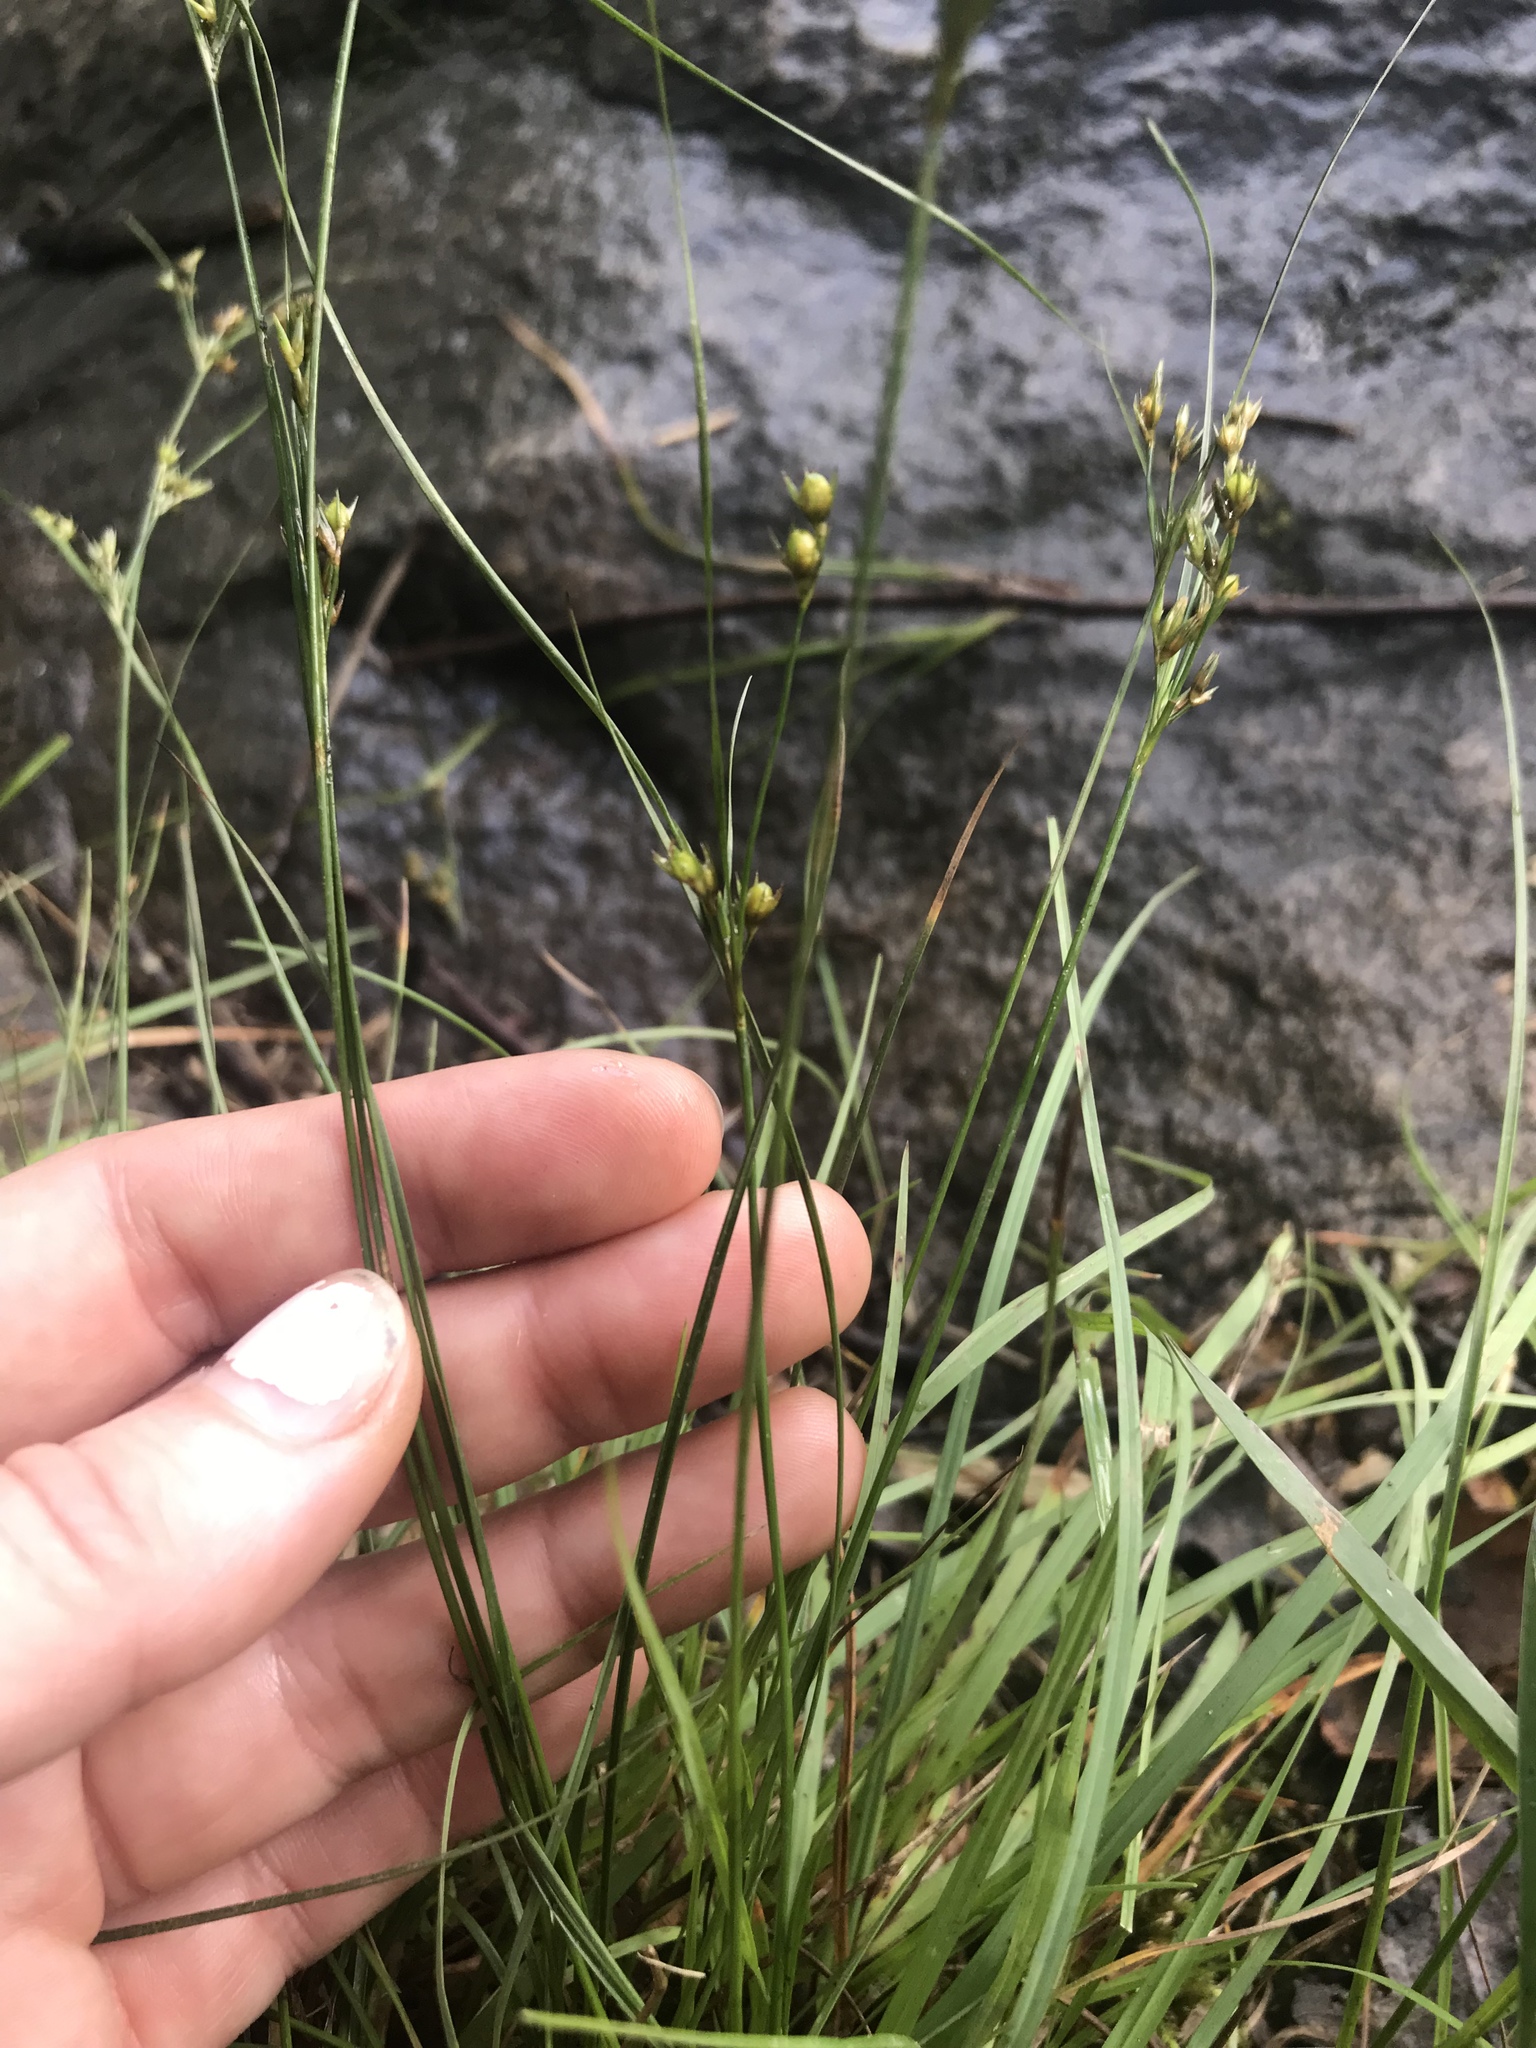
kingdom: Plantae
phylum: Tracheophyta
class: Liliopsida
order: Poales
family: Juncaceae
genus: Juncus
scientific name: Juncus dudleyi
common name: Dudley's rush
